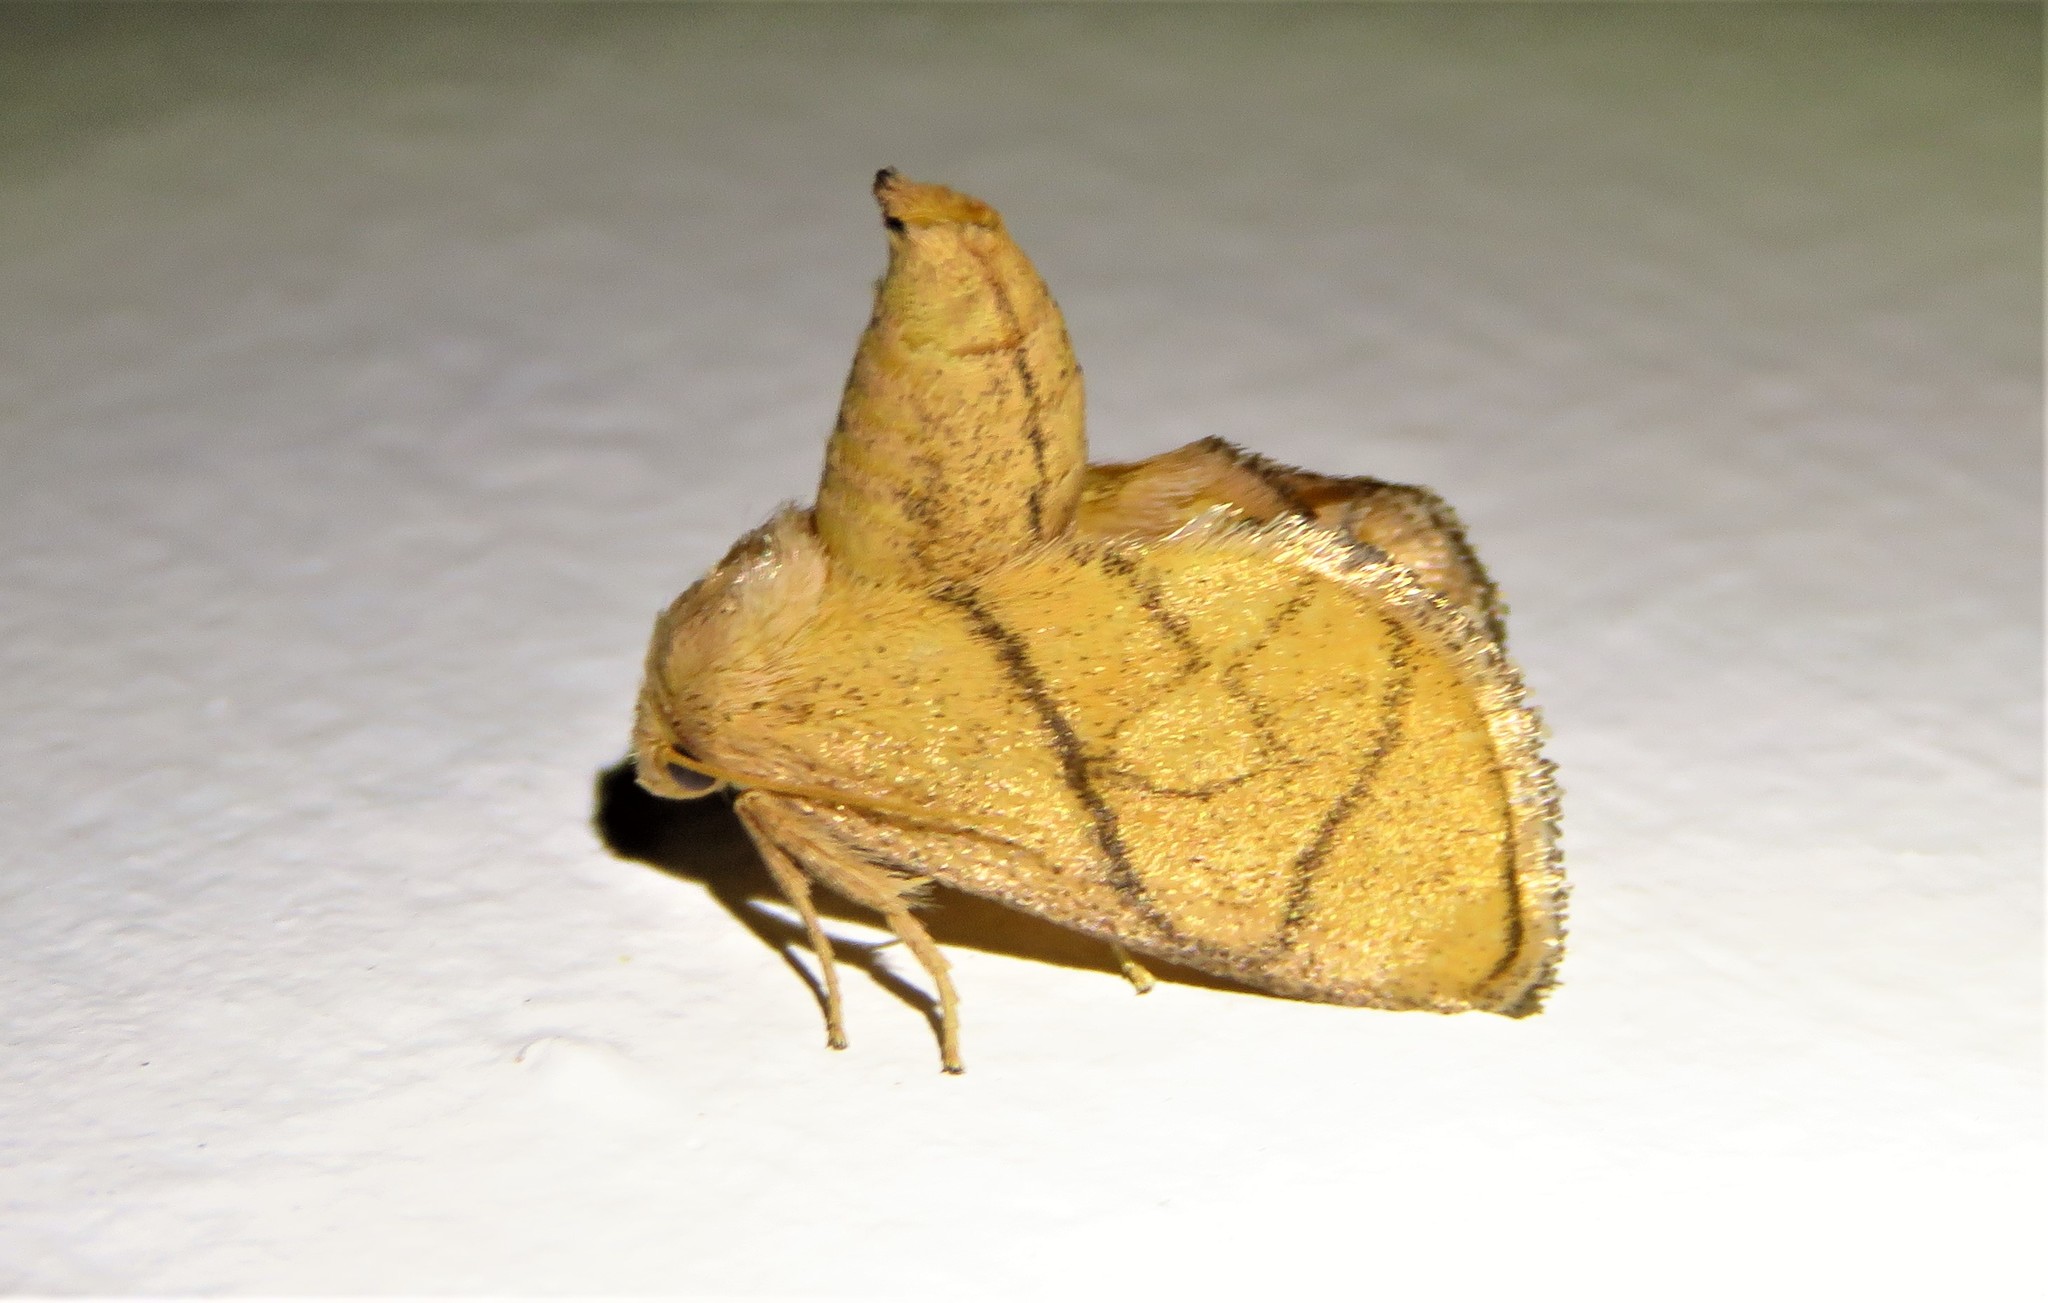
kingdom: Animalia
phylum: Arthropoda
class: Insecta
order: Lepidoptera
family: Limacodidae
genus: Apoda
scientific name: Apoda y-inversa
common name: Yellow-collared slug moth
